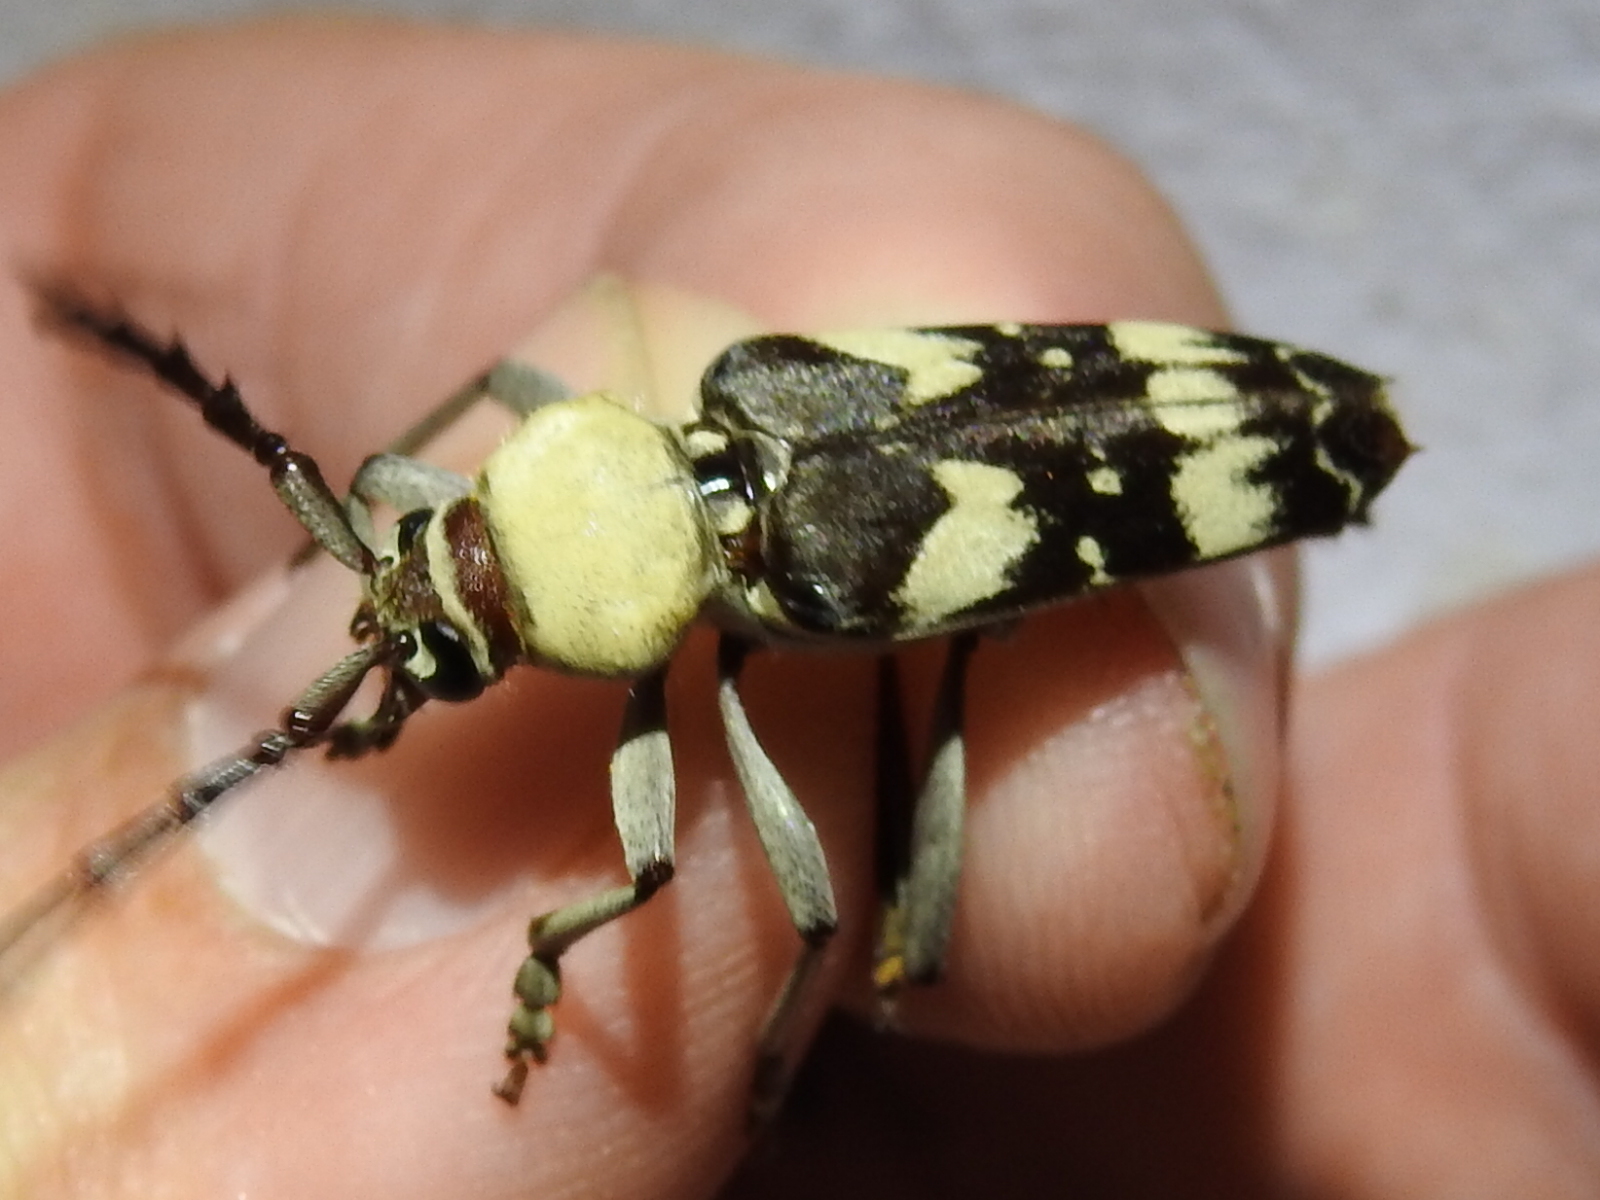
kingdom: Animalia
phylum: Arthropoda
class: Insecta
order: Coleoptera
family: Cerambycidae
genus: Megacyllene
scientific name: Megacyllene antennata
